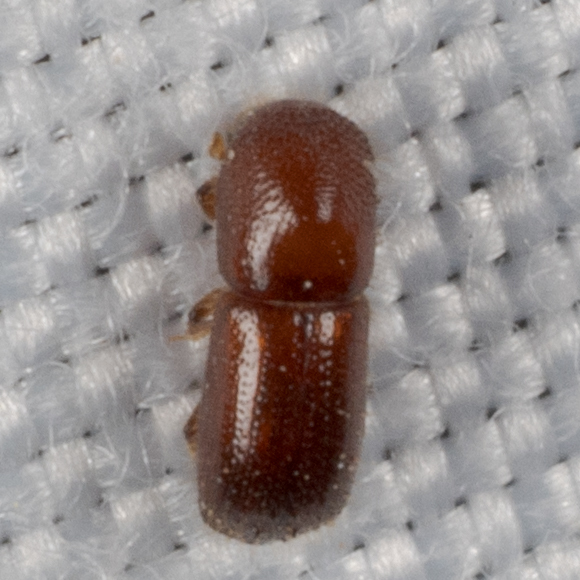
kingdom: Animalia
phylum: Arthropoda
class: Insecta
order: Coleoptera
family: Curculionidae
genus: Euwallacea
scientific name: Euwallacea similis
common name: Ambrosia beetle
